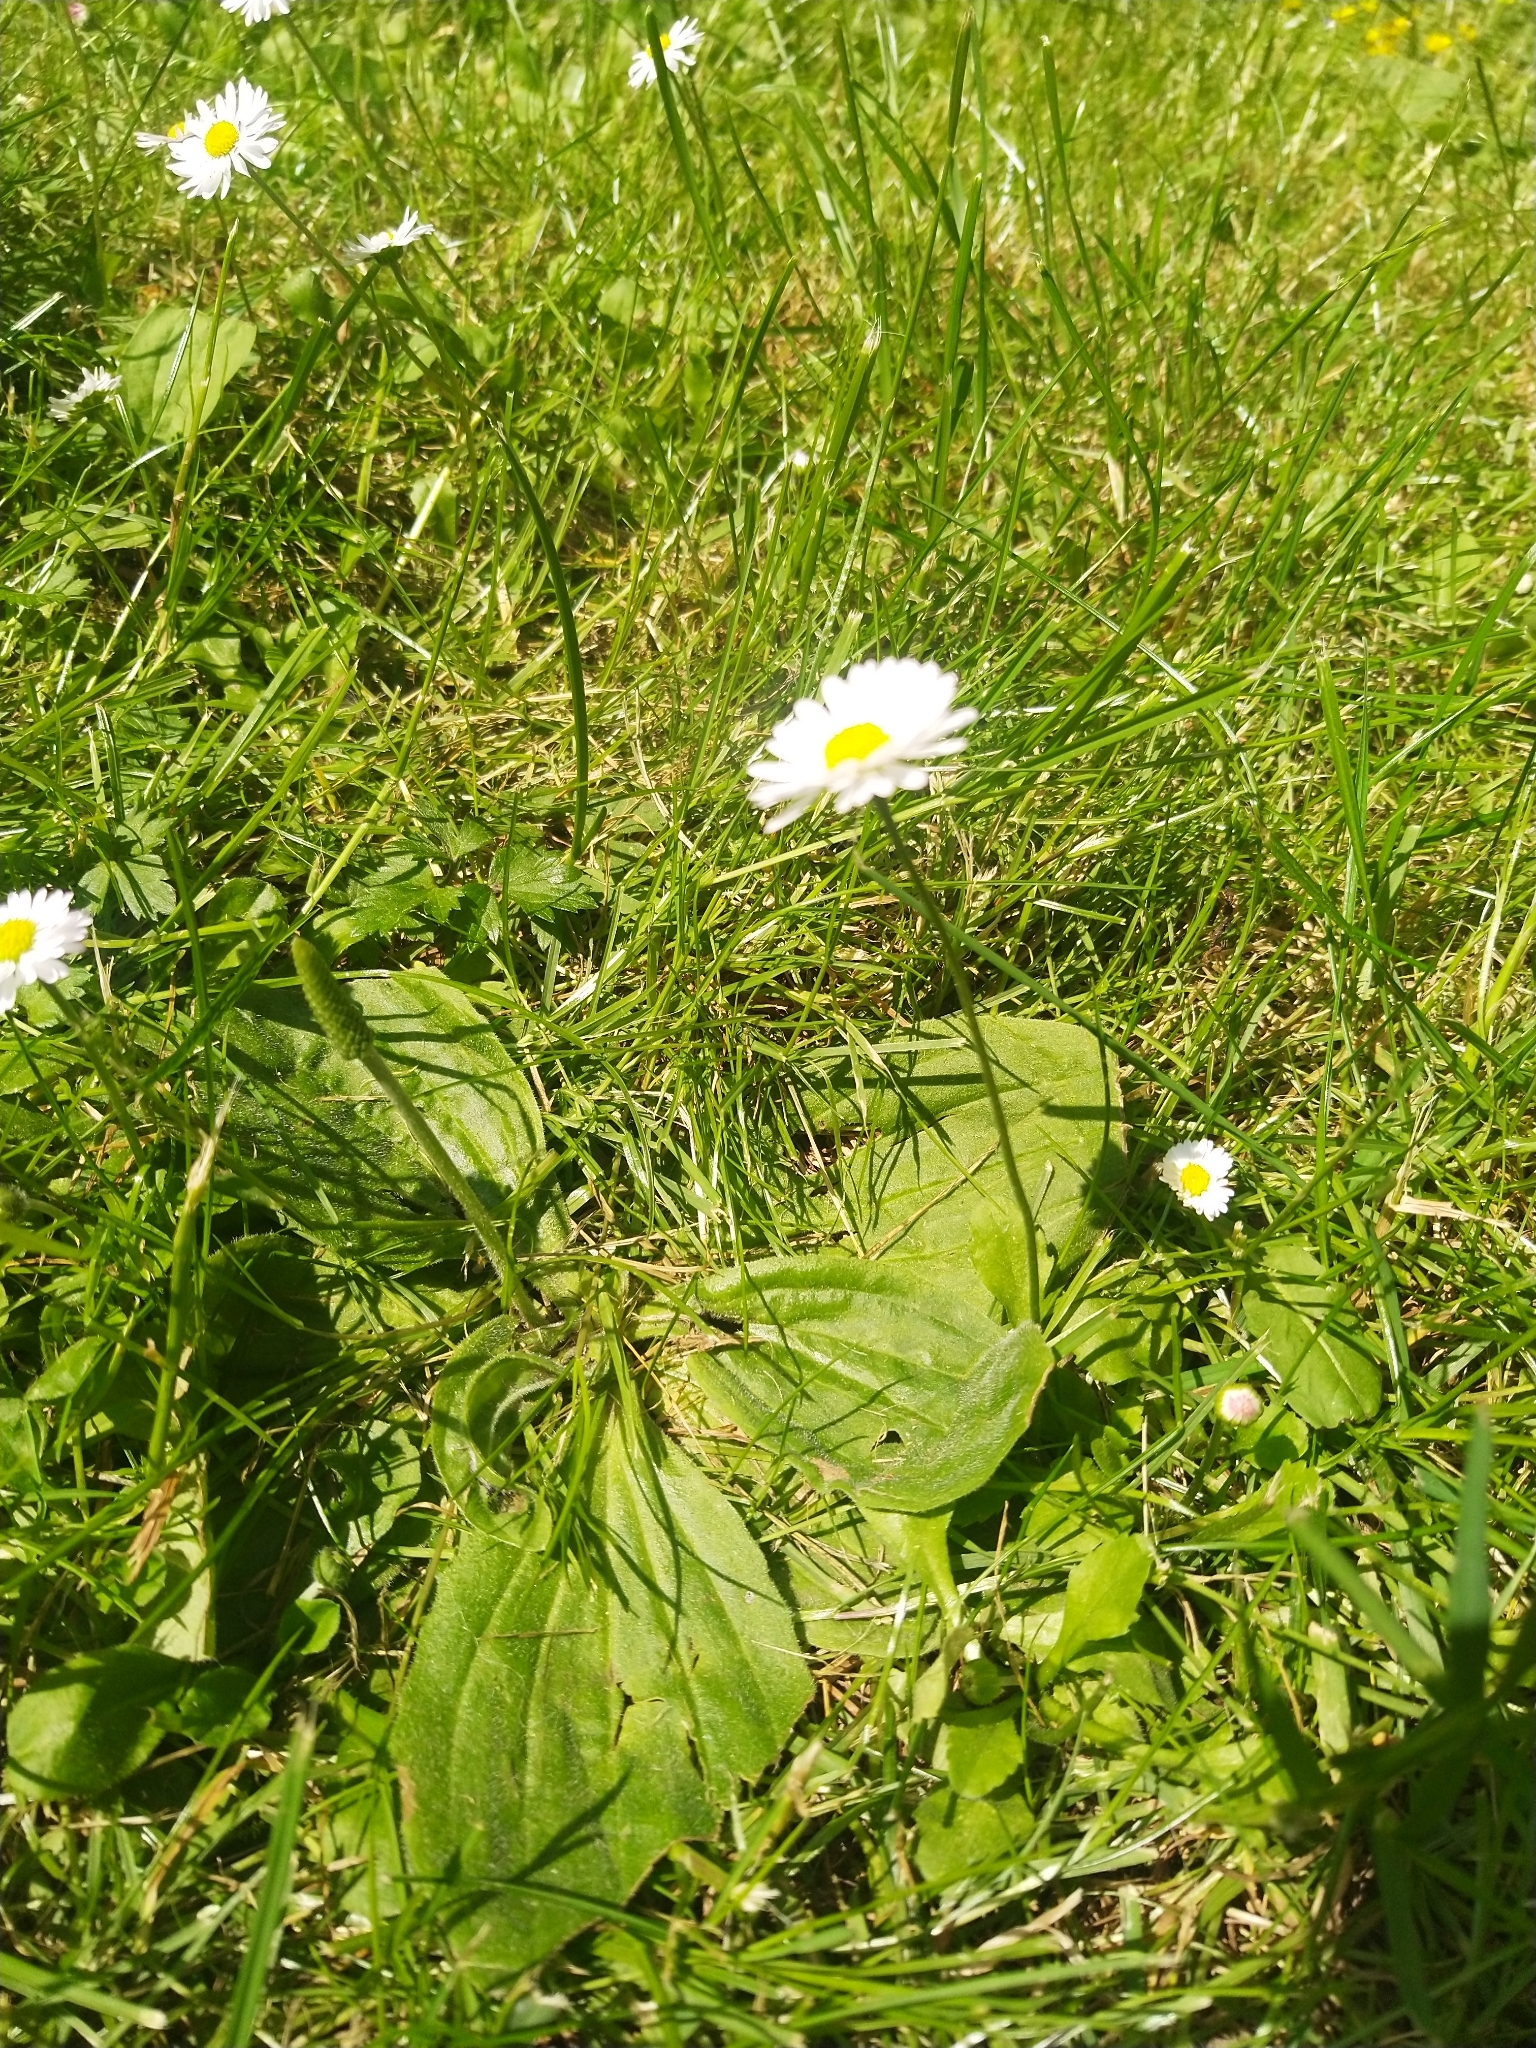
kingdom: Plantae
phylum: Tracheophyta
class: Magnoliopsida
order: Asterales
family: Asteraceae
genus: Bellis
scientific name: Bellis perennis
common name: Lawndaisy
